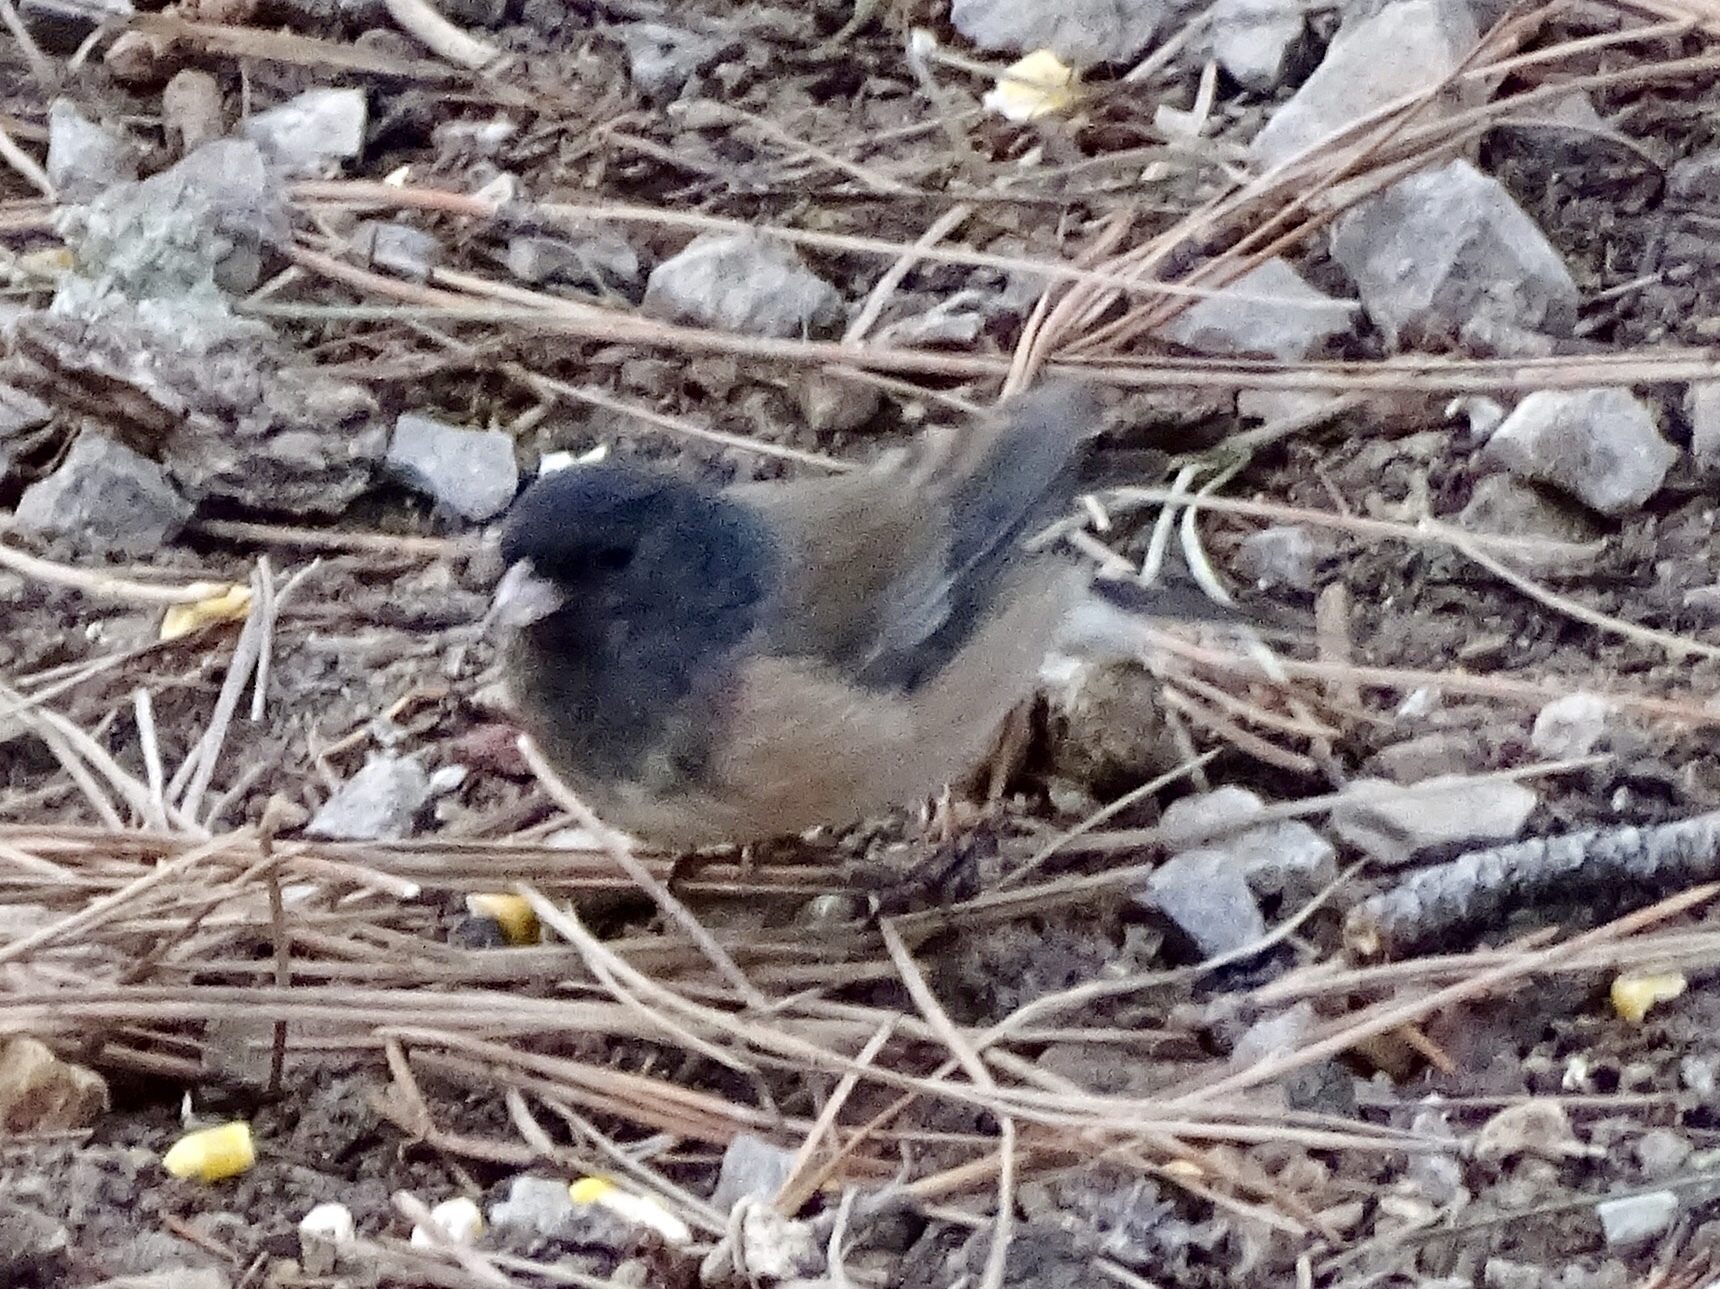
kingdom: Animalia
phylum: Chordata
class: Aves
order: Passeriformes
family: Passerellidae
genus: Junco
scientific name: Junco hyemalis
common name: Dark-eyed junco
